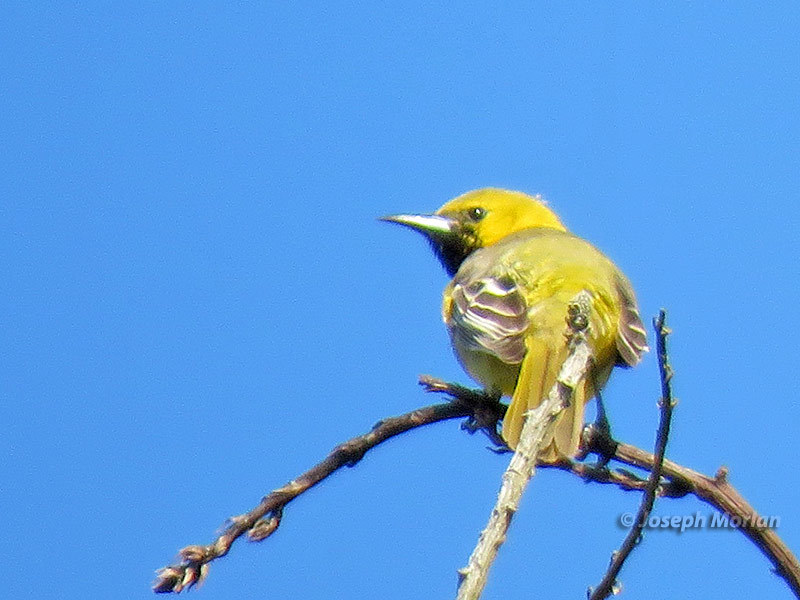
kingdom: Animalia
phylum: Chordata
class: Aves
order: Passeriformes
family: Icteridae
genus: Icterus
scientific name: Icterus cucullatus
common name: Hooded oriole
